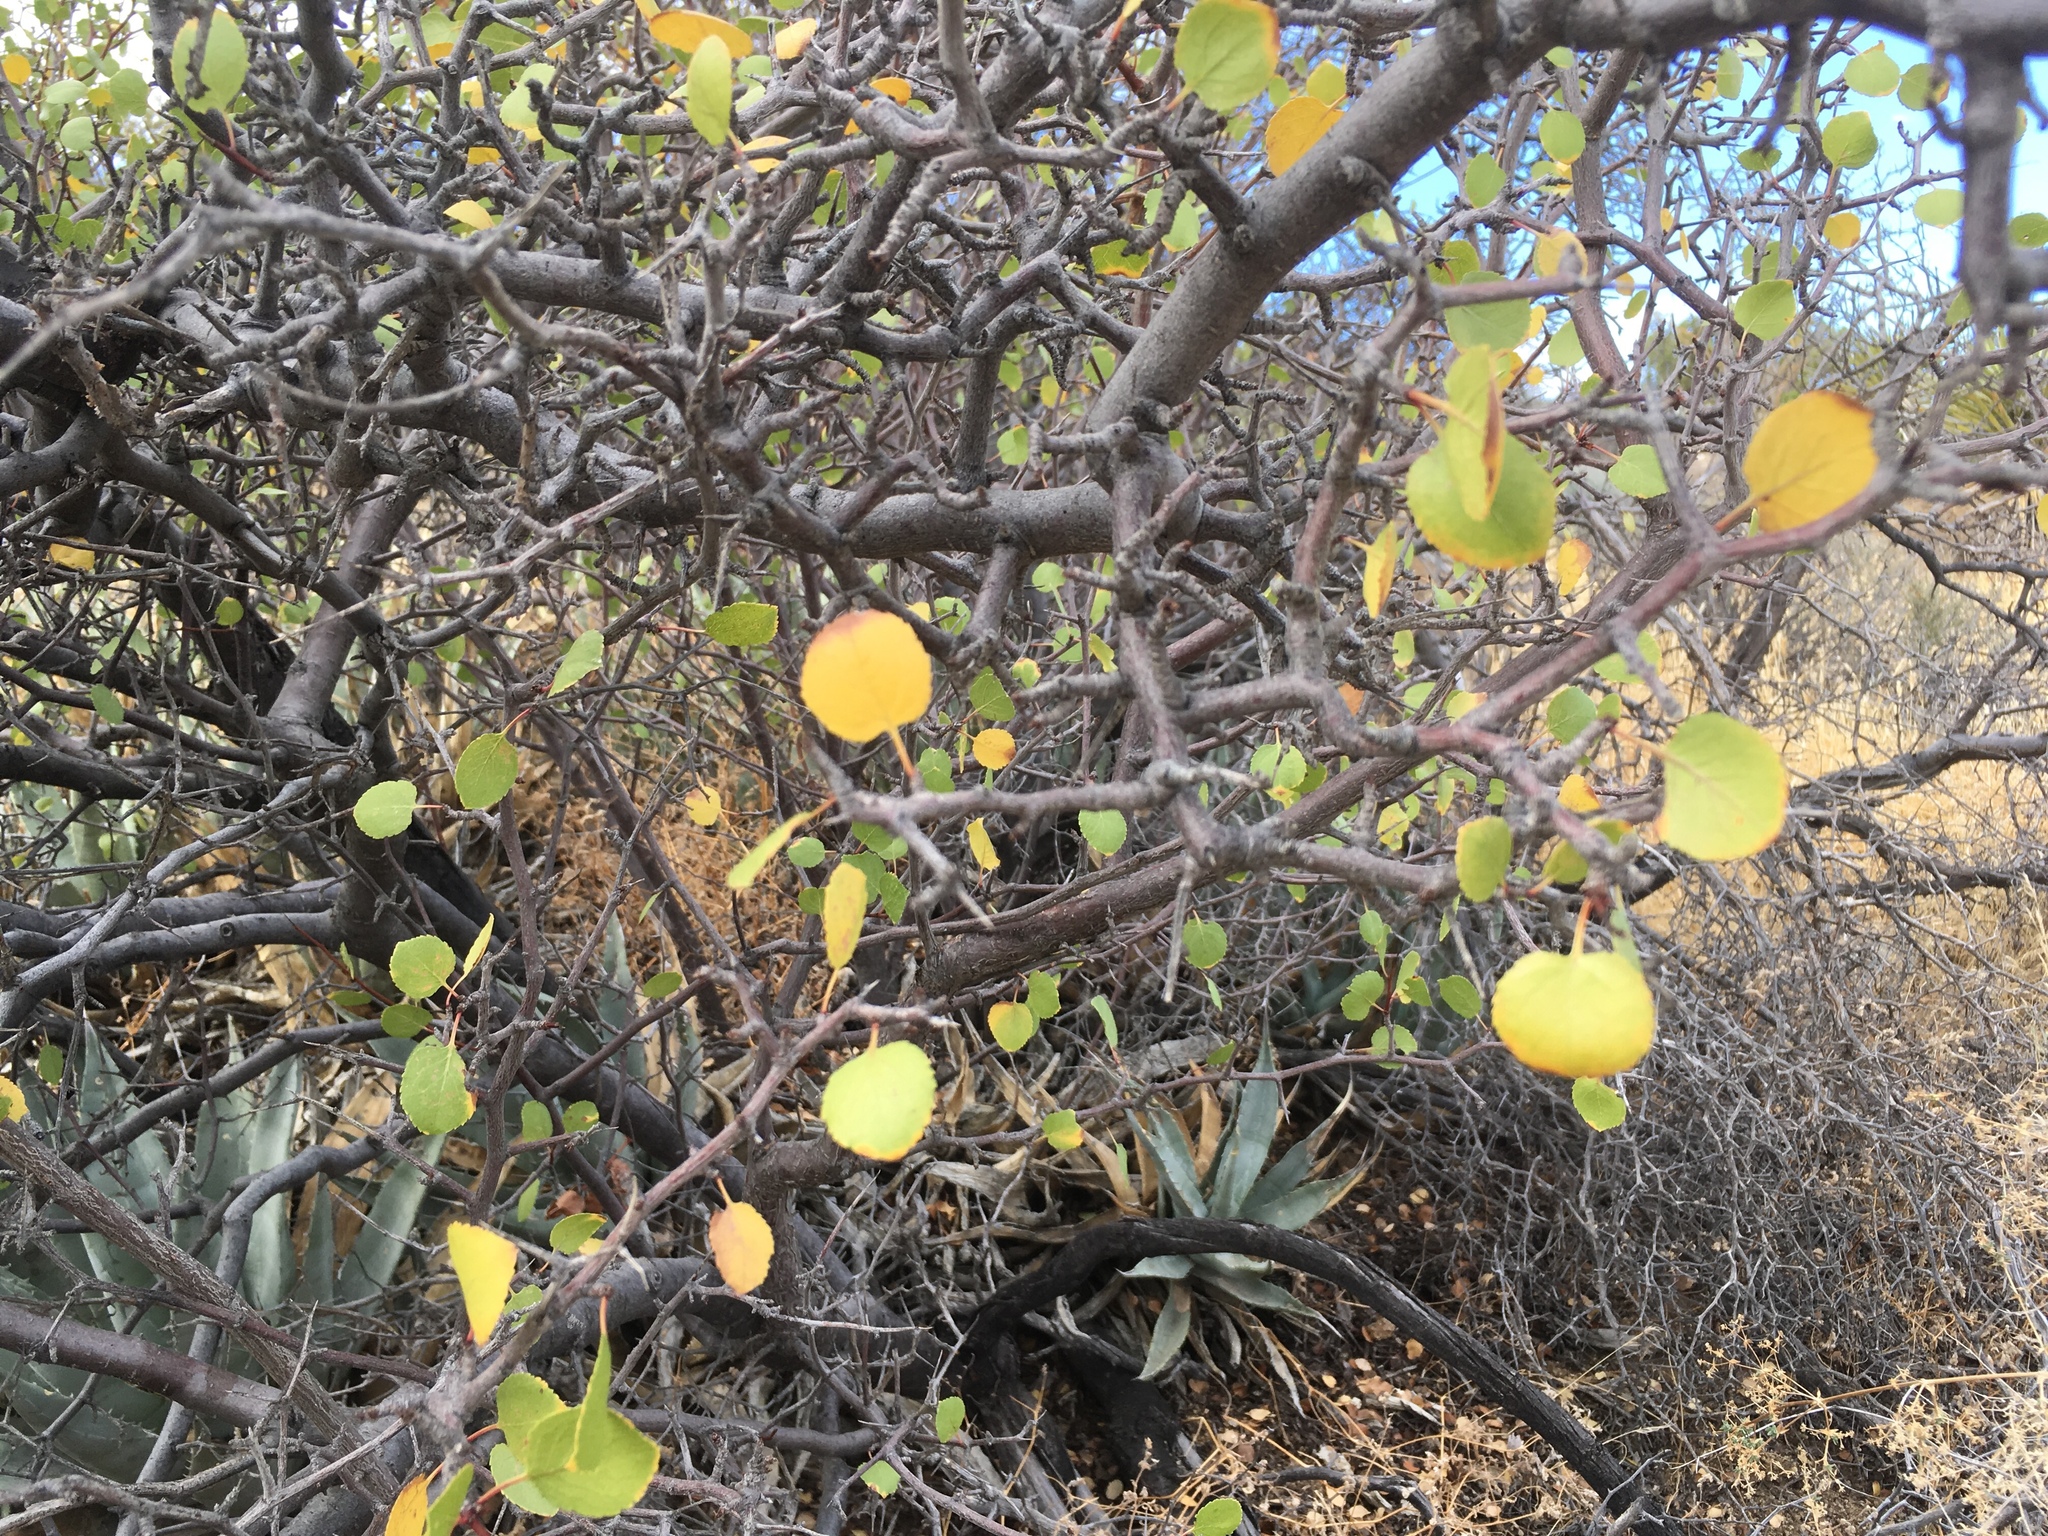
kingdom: Plantae
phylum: Tracheophyta
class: Magnoliopsida
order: Rosales
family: Rosaceae
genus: Prunus
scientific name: Prunus fremontii
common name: Desert apricot
